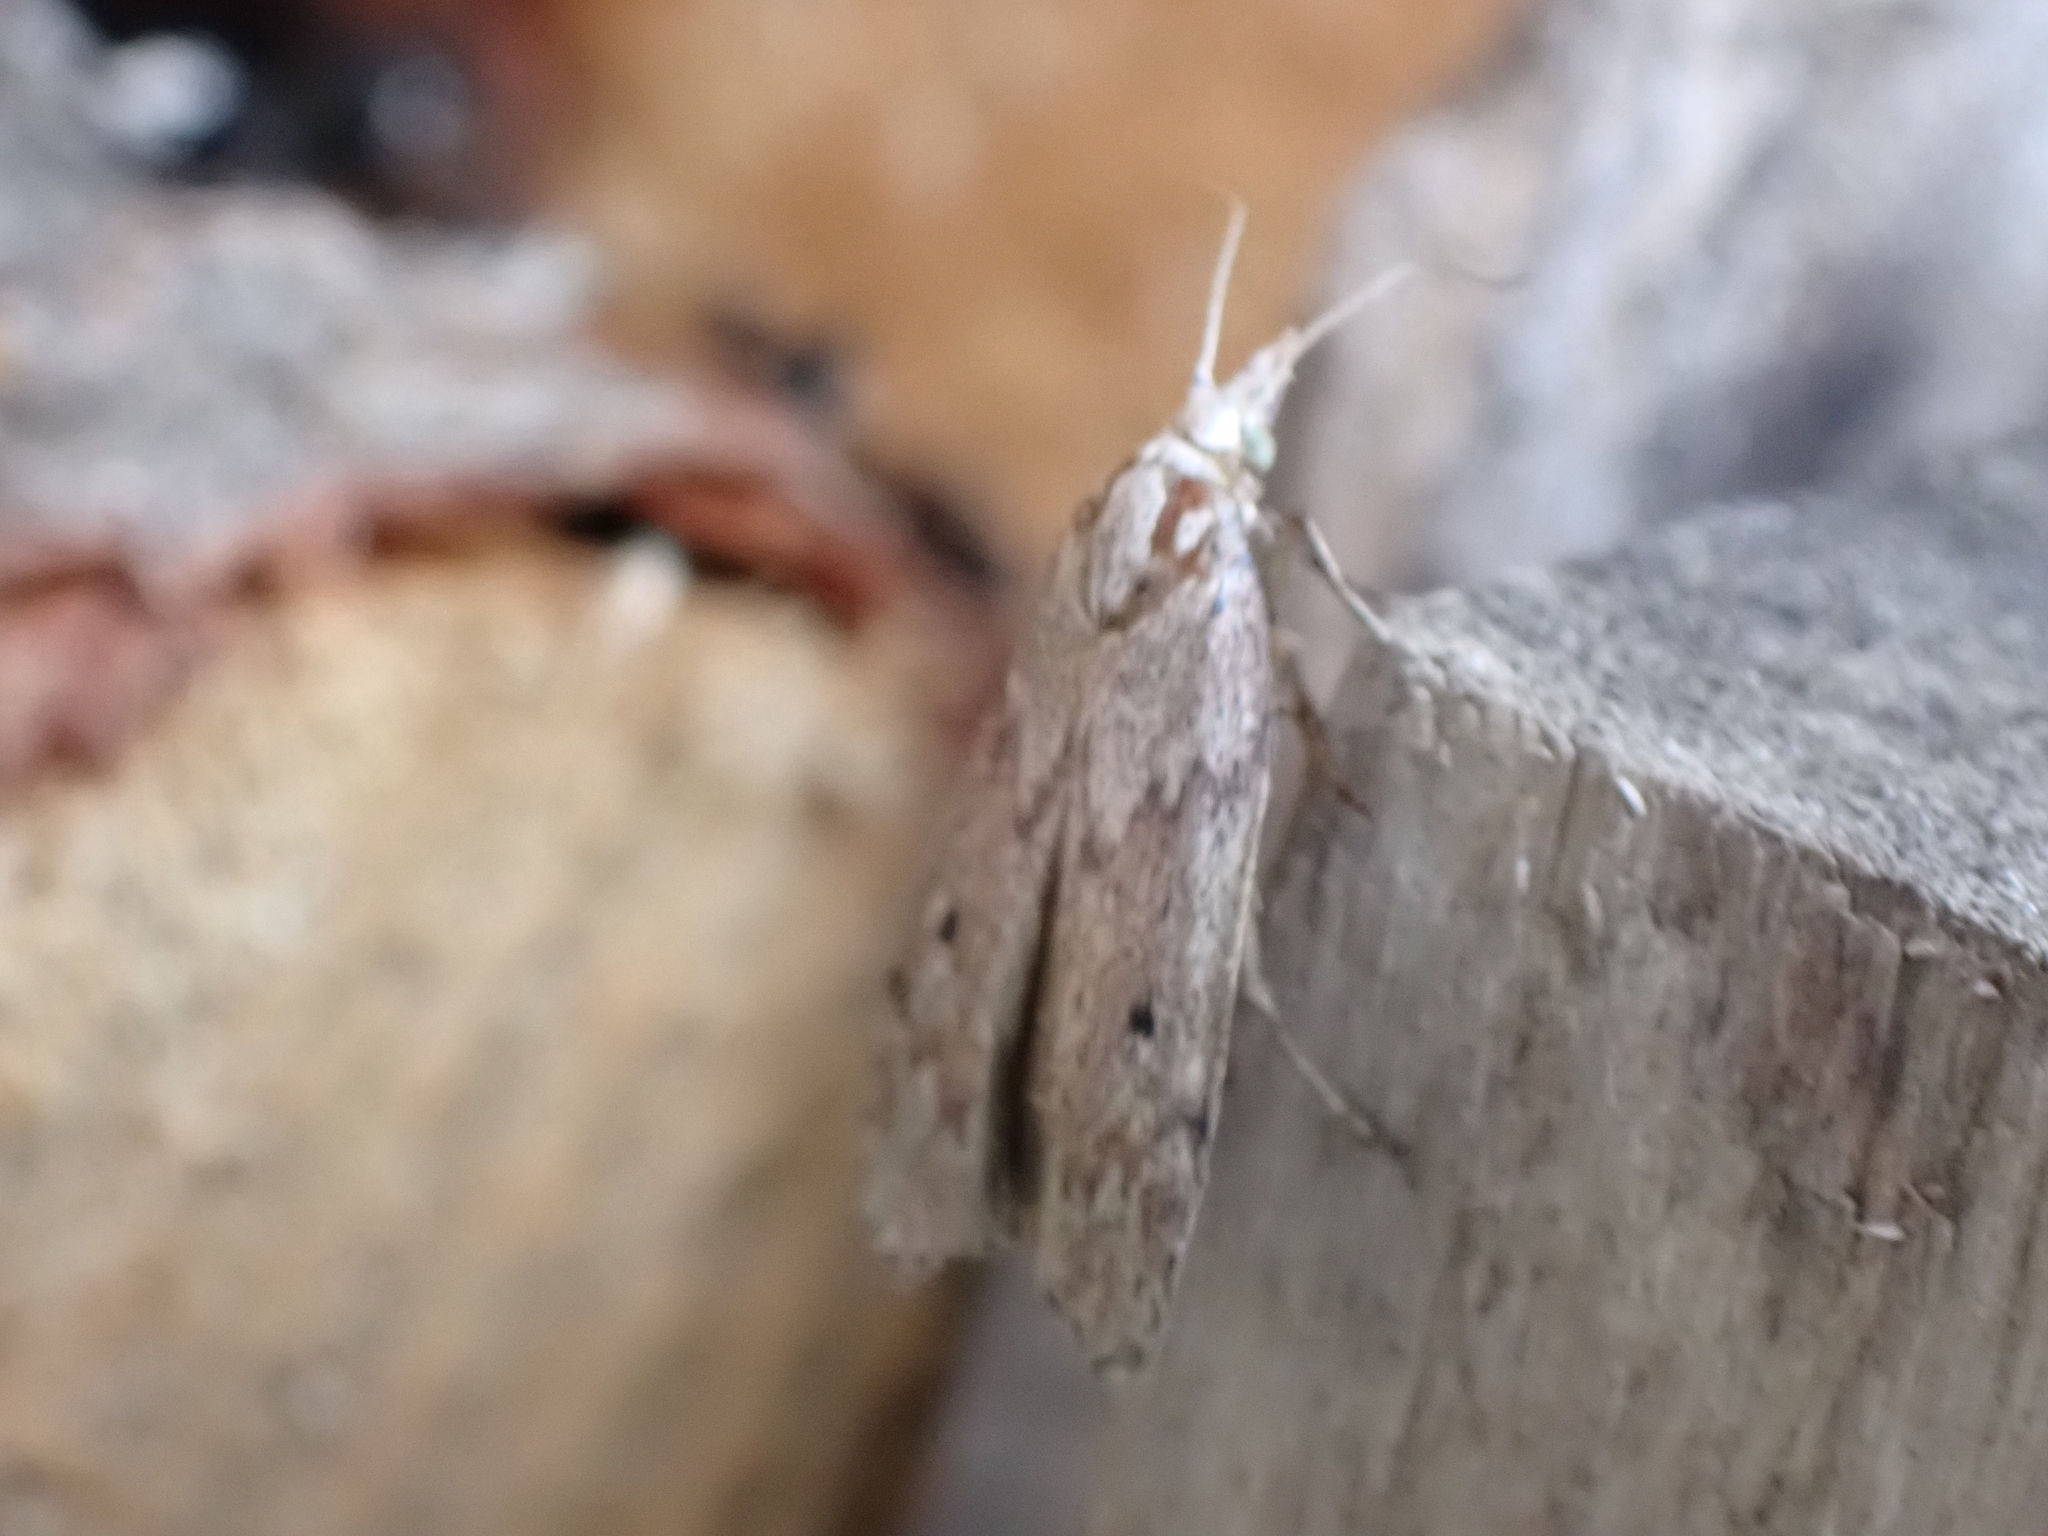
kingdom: Animalia
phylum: Arthropoda
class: Insecta
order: Lepidoptera
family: Pyralidae
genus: Aphomia
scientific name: Aphomia sociella
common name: Bee moth
